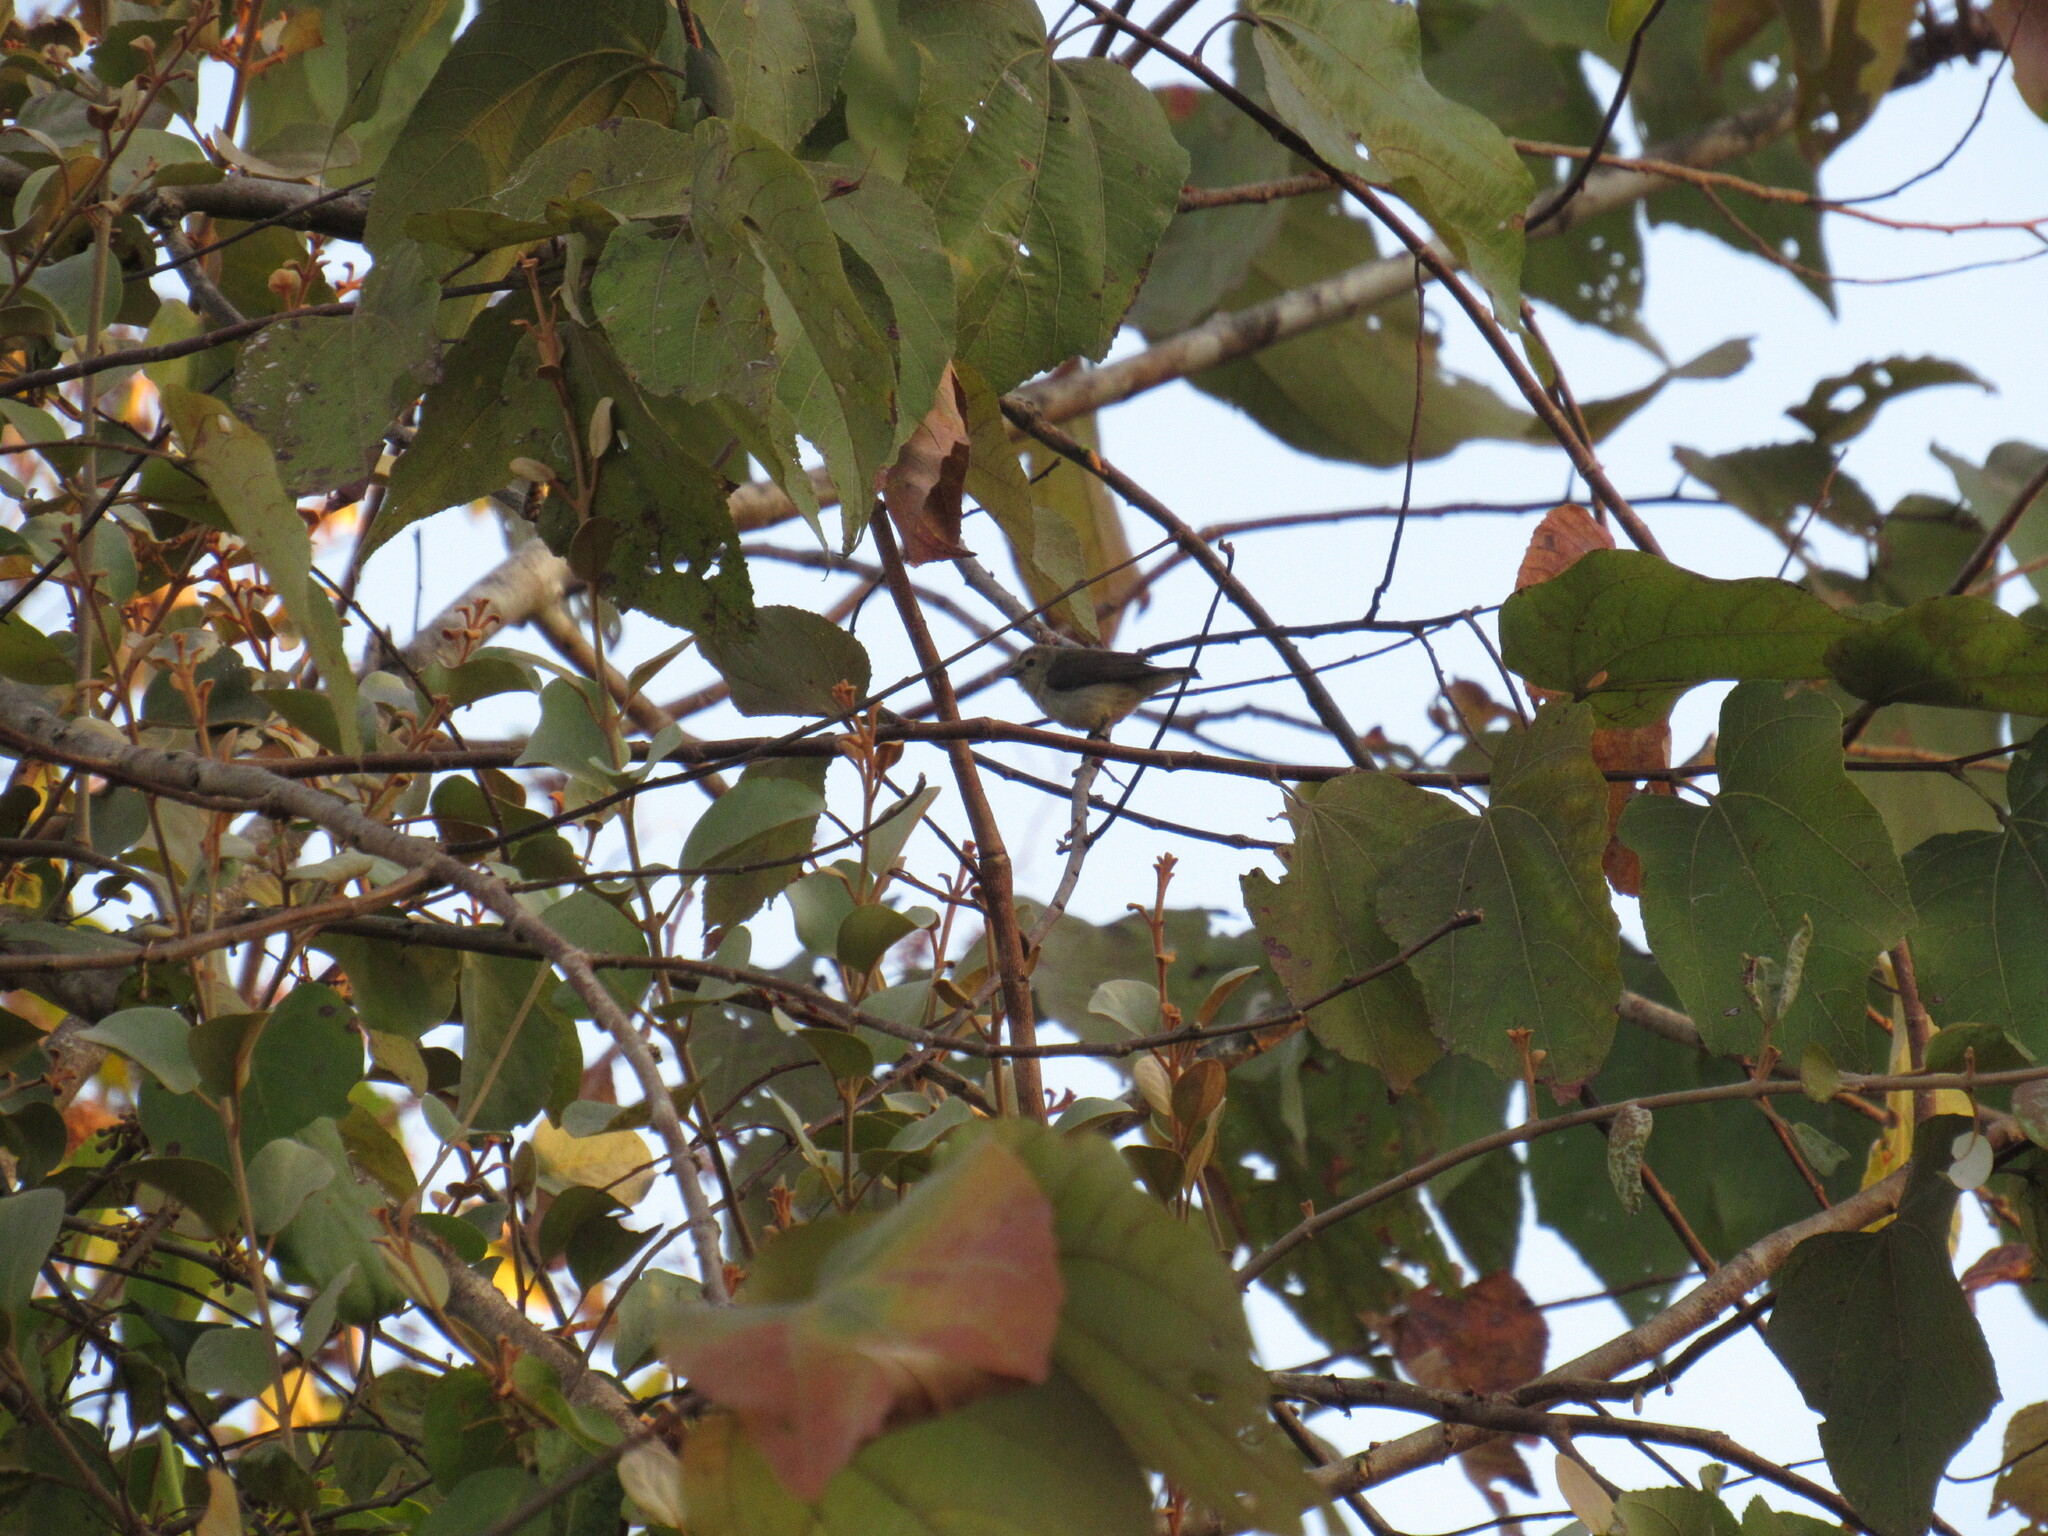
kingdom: Animalia
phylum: Chordata
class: Aves
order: Passeriformes
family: Dicaeidae
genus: Dicaeum
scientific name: Dicaeum concolor
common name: Nilgiri flowerpecker
